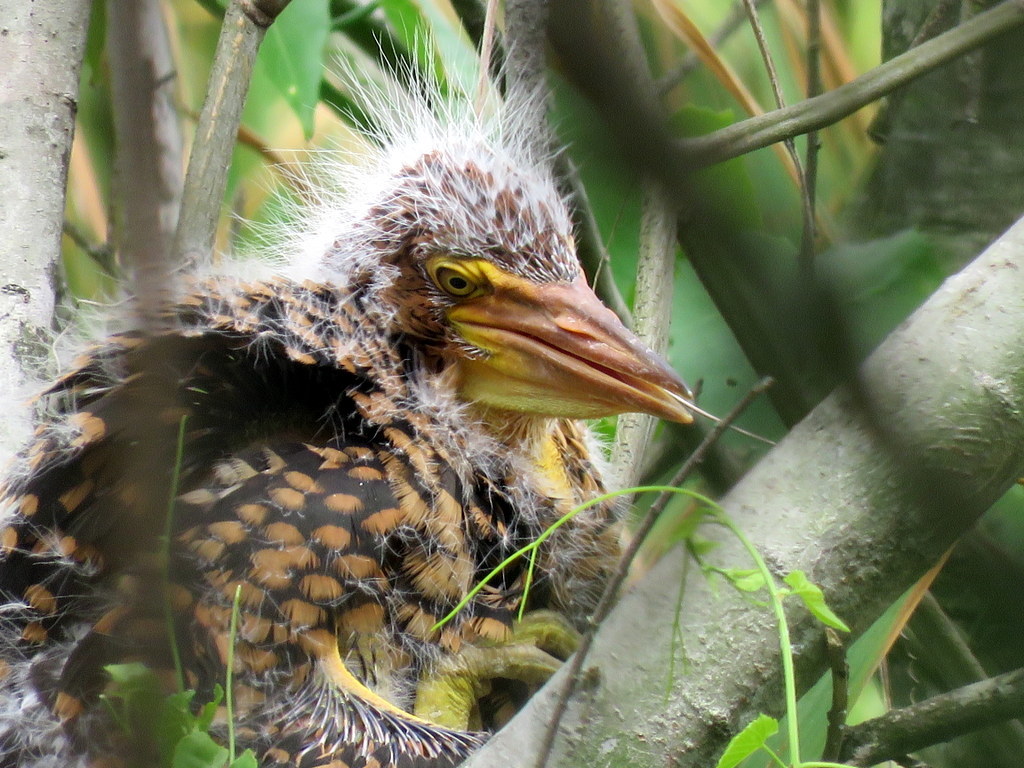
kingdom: Animalia
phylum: Chordata
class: Aves
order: Pelecaniformes
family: Ardeidae
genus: Tigrisoma
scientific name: Tigrisoma lineatum
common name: Rufescent tiger-heron
